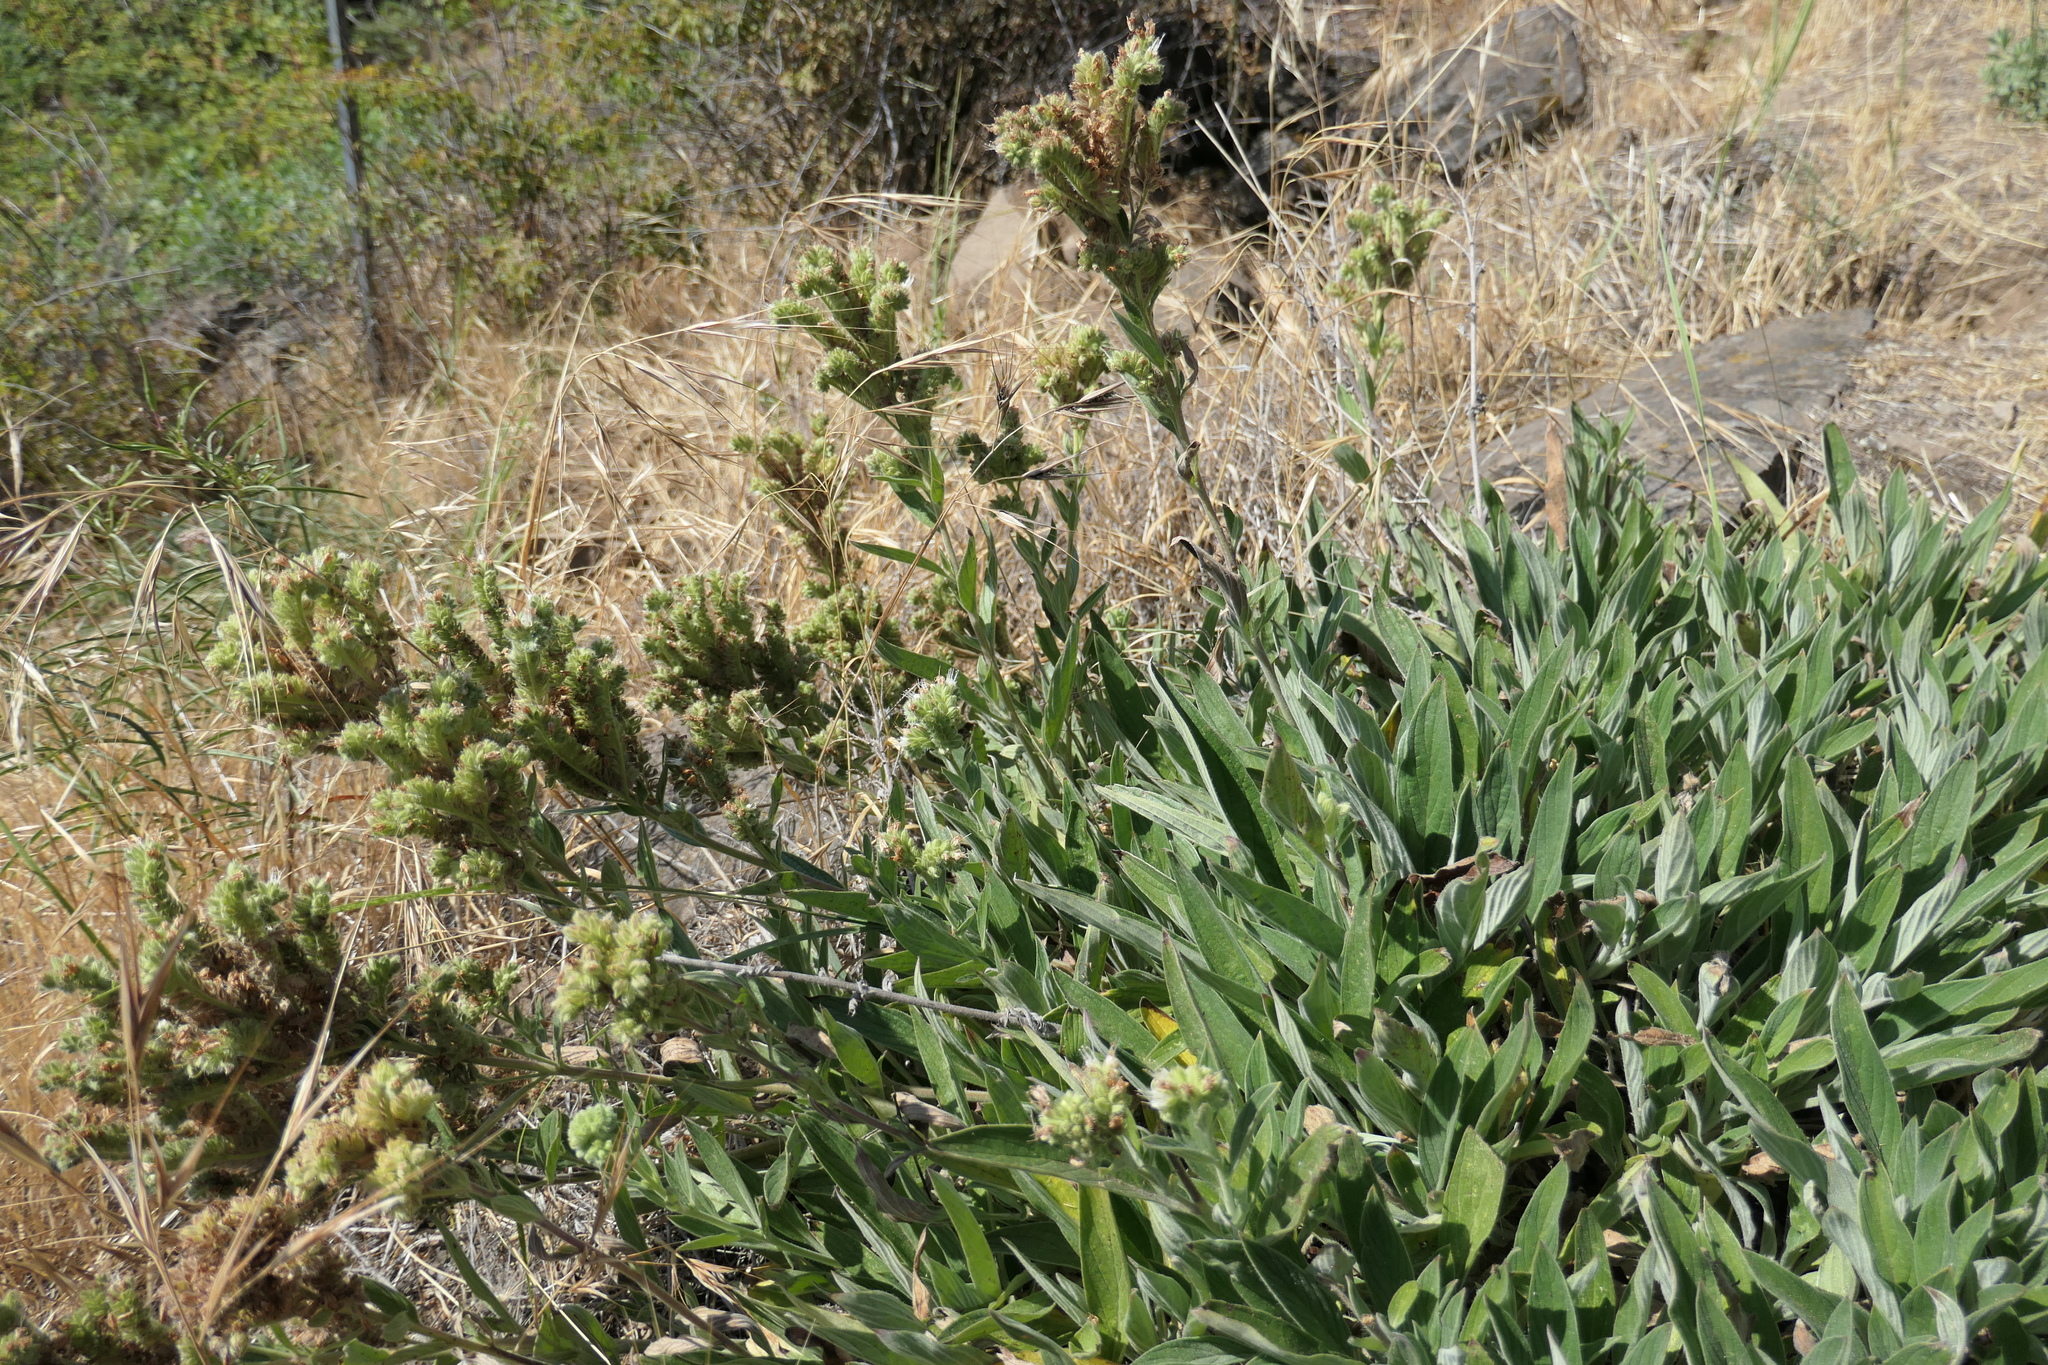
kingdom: Plantae
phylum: Tracheophyta
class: Magnoliopsida
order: Boraginales
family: Hydrophyllaceae
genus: Phacelia
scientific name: Phacelia hastata
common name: Silver-leaved phacelia
